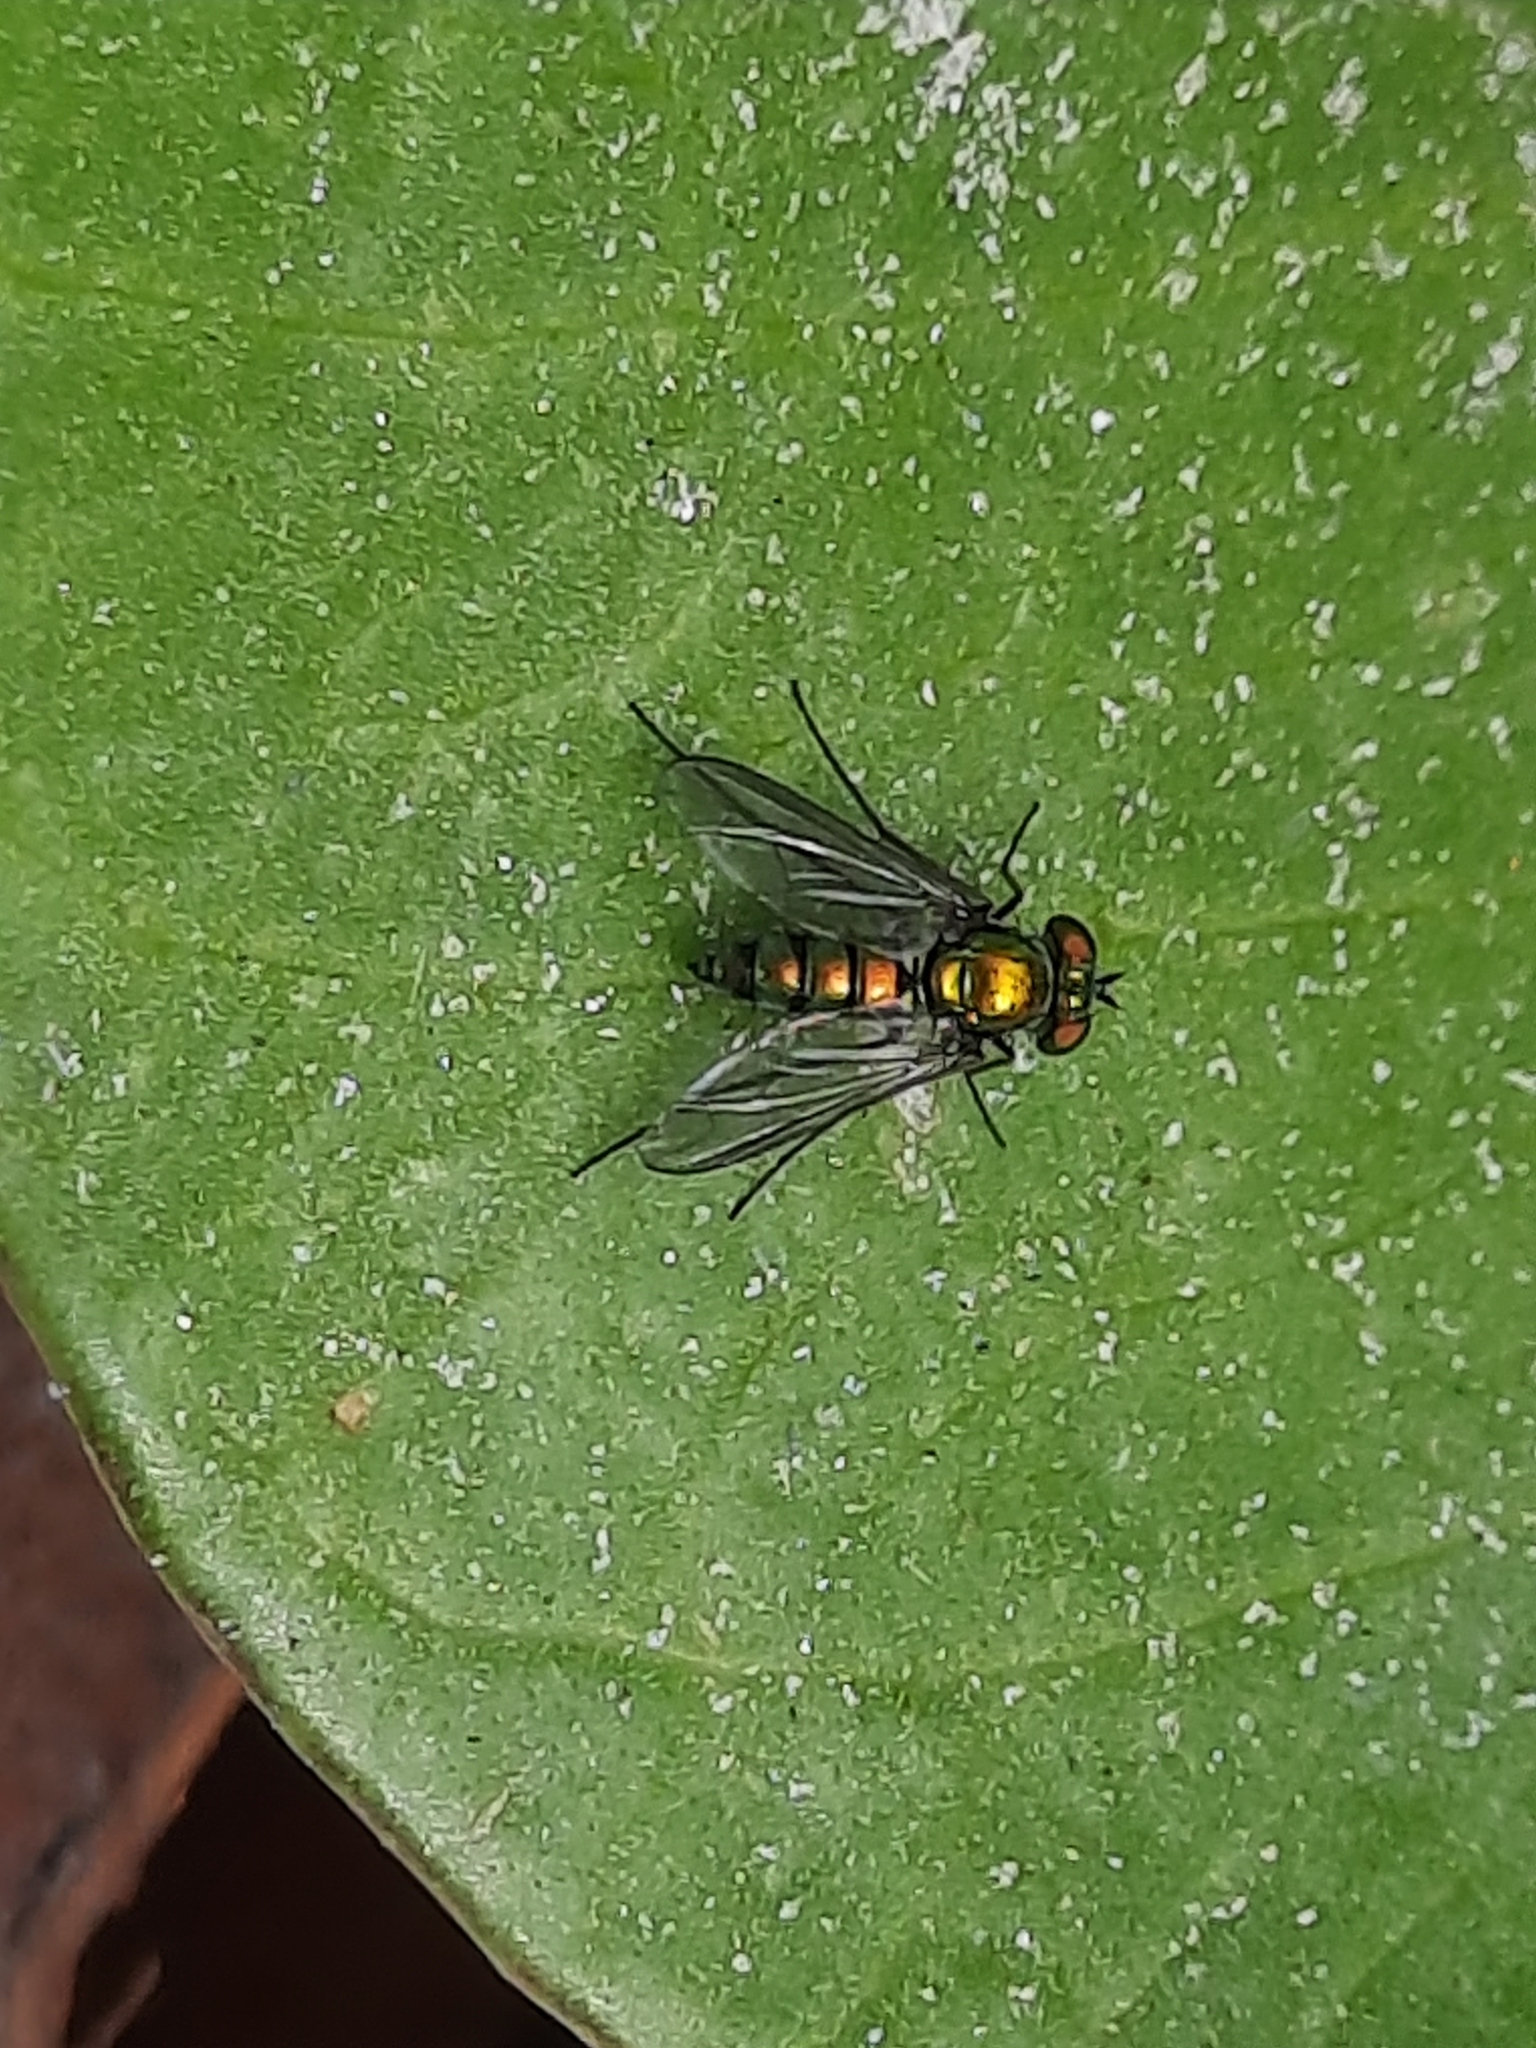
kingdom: Animalia
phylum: Arthropoda
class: Insecta
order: Diptera
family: Dolichopodidae
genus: Condylostylus
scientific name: Condylostylus longicornis
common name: Long-legged fly
